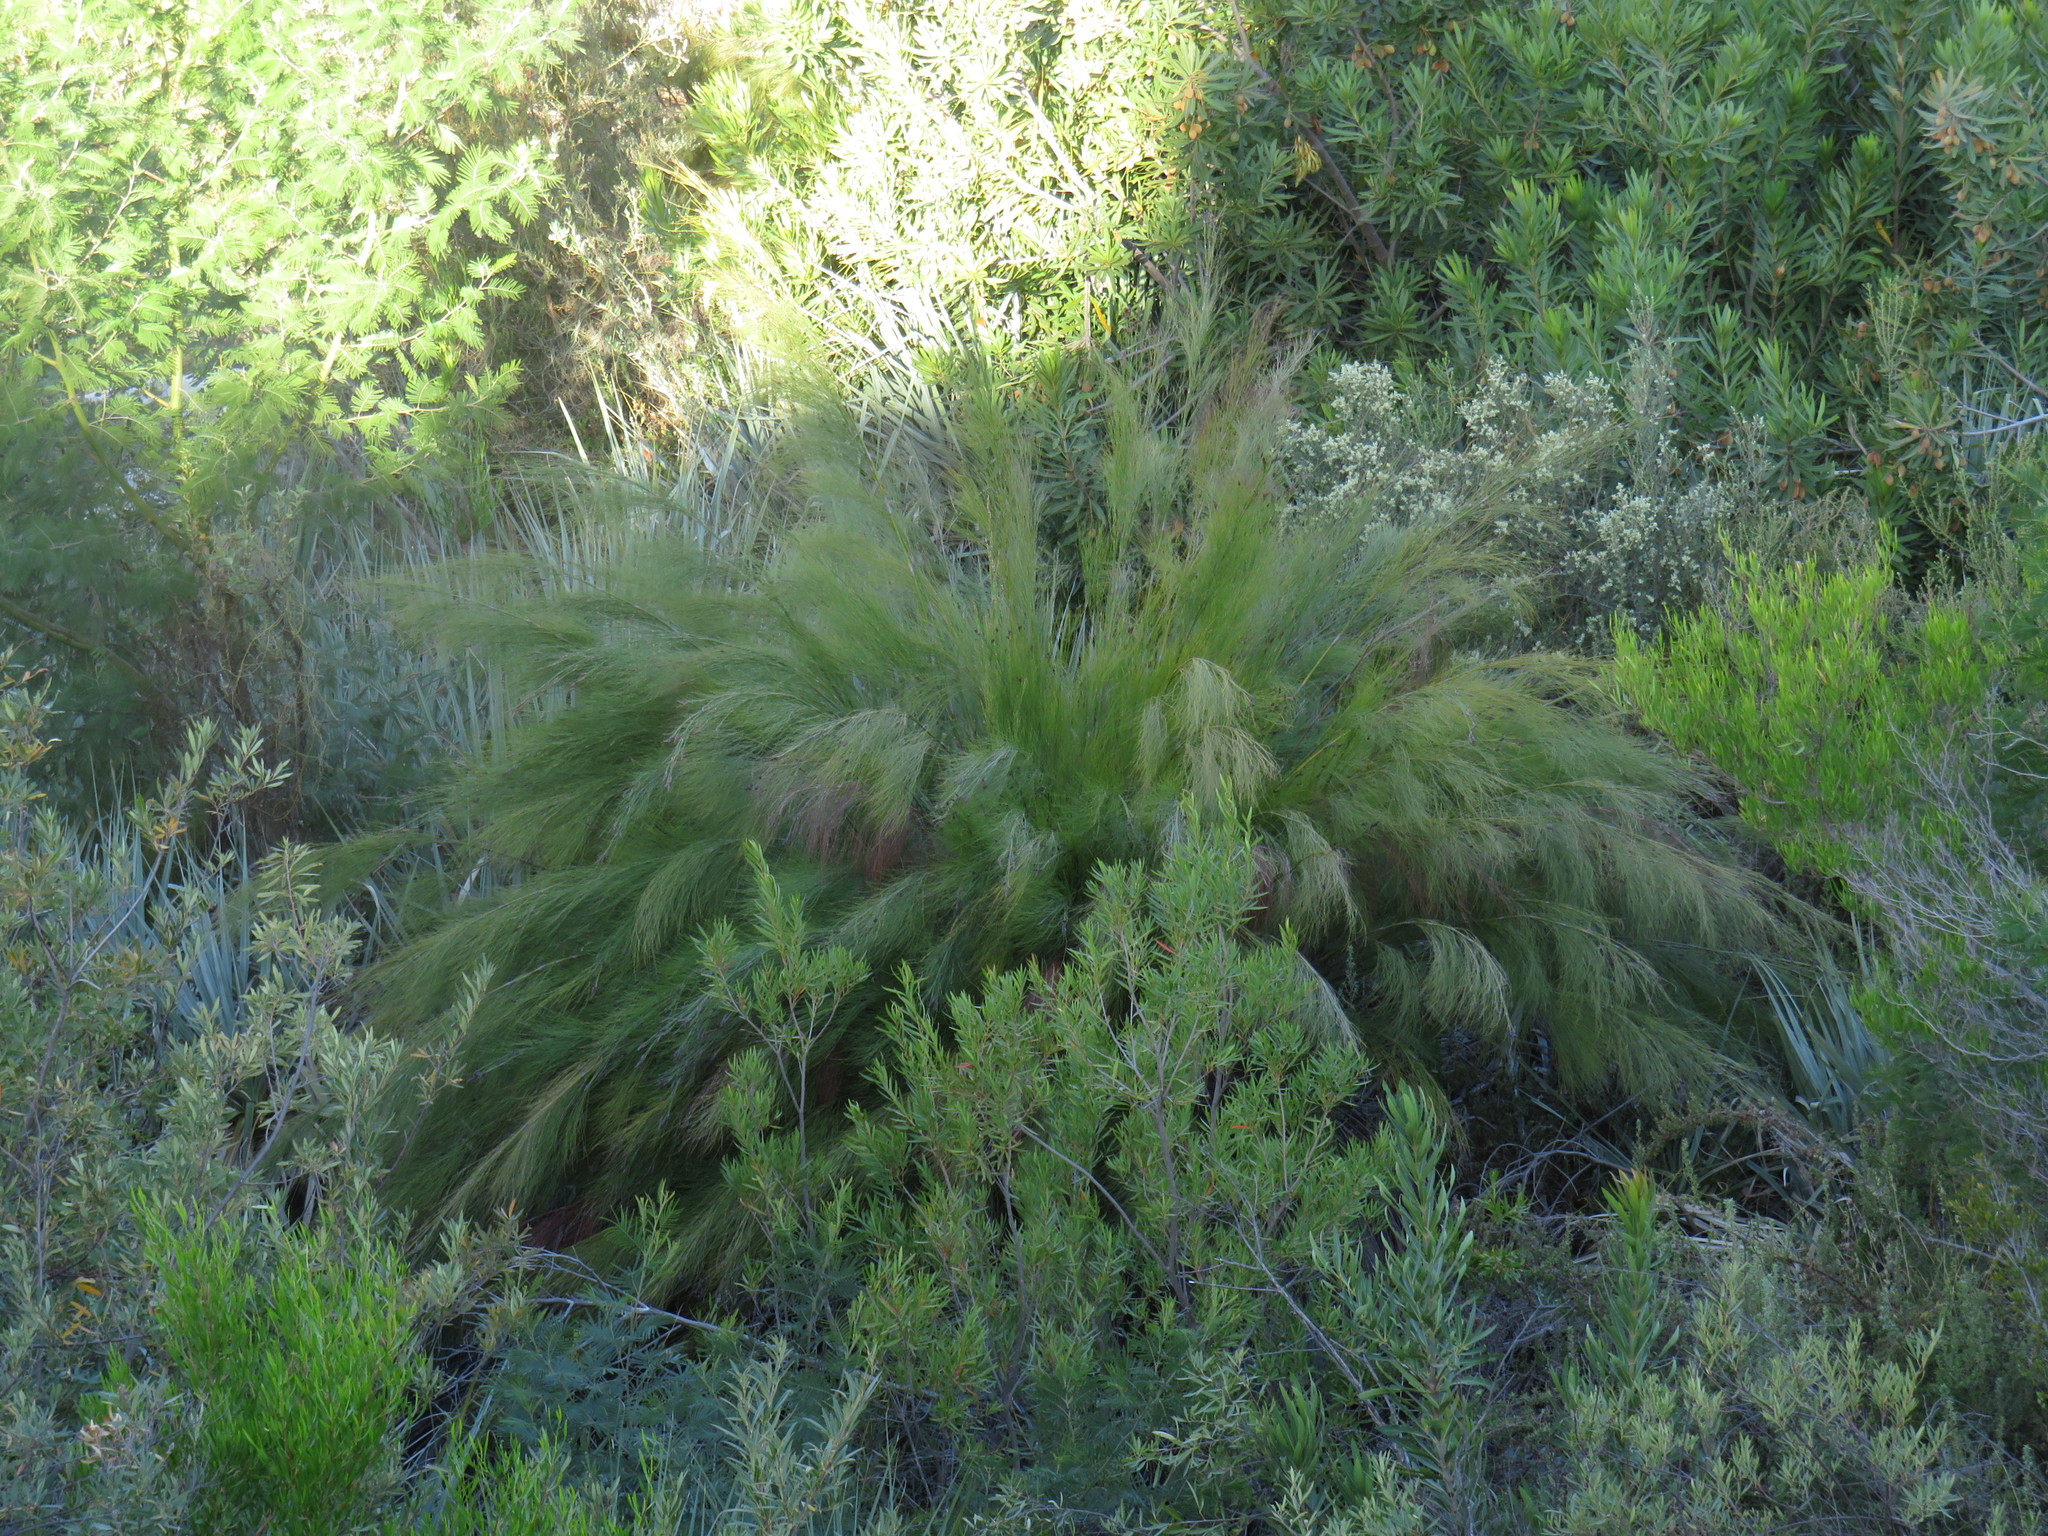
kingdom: Plantae
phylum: Tracheophyta
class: Liliopsida
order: Poales
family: Restionaceae
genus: Cannomois
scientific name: Cannomois robusta
